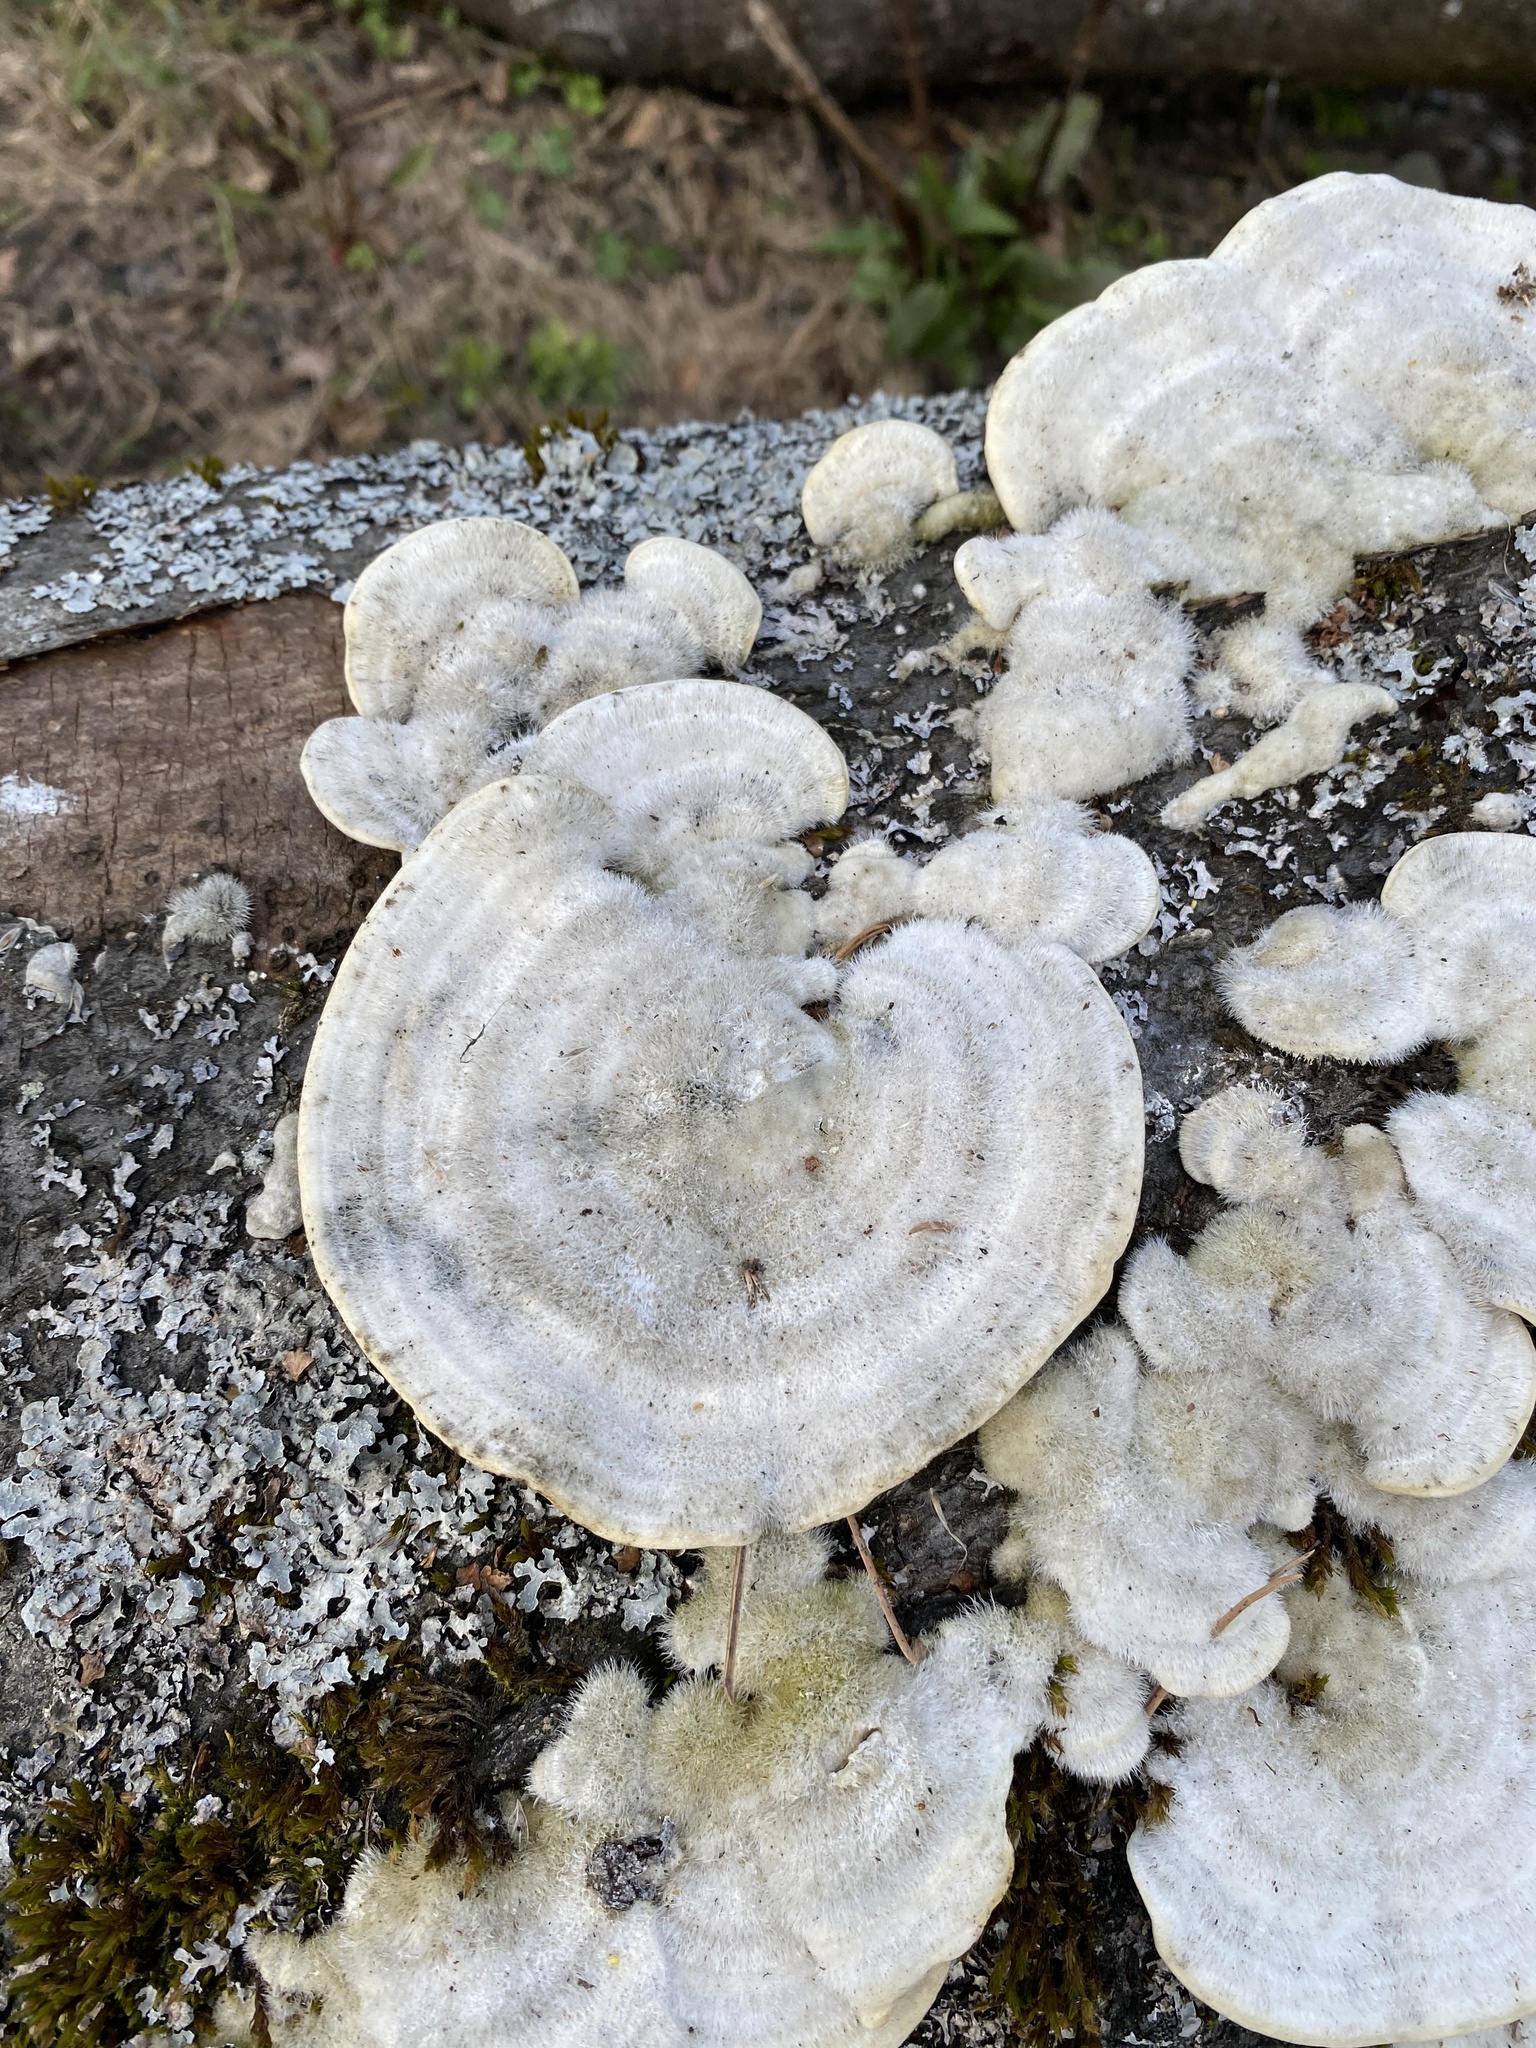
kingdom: Fungi
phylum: Basidiomycota
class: Agaricomycetes
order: Polyporales
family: Polyporaceae
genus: Trametes
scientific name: Trametes hirsuta
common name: Hairy bracket
